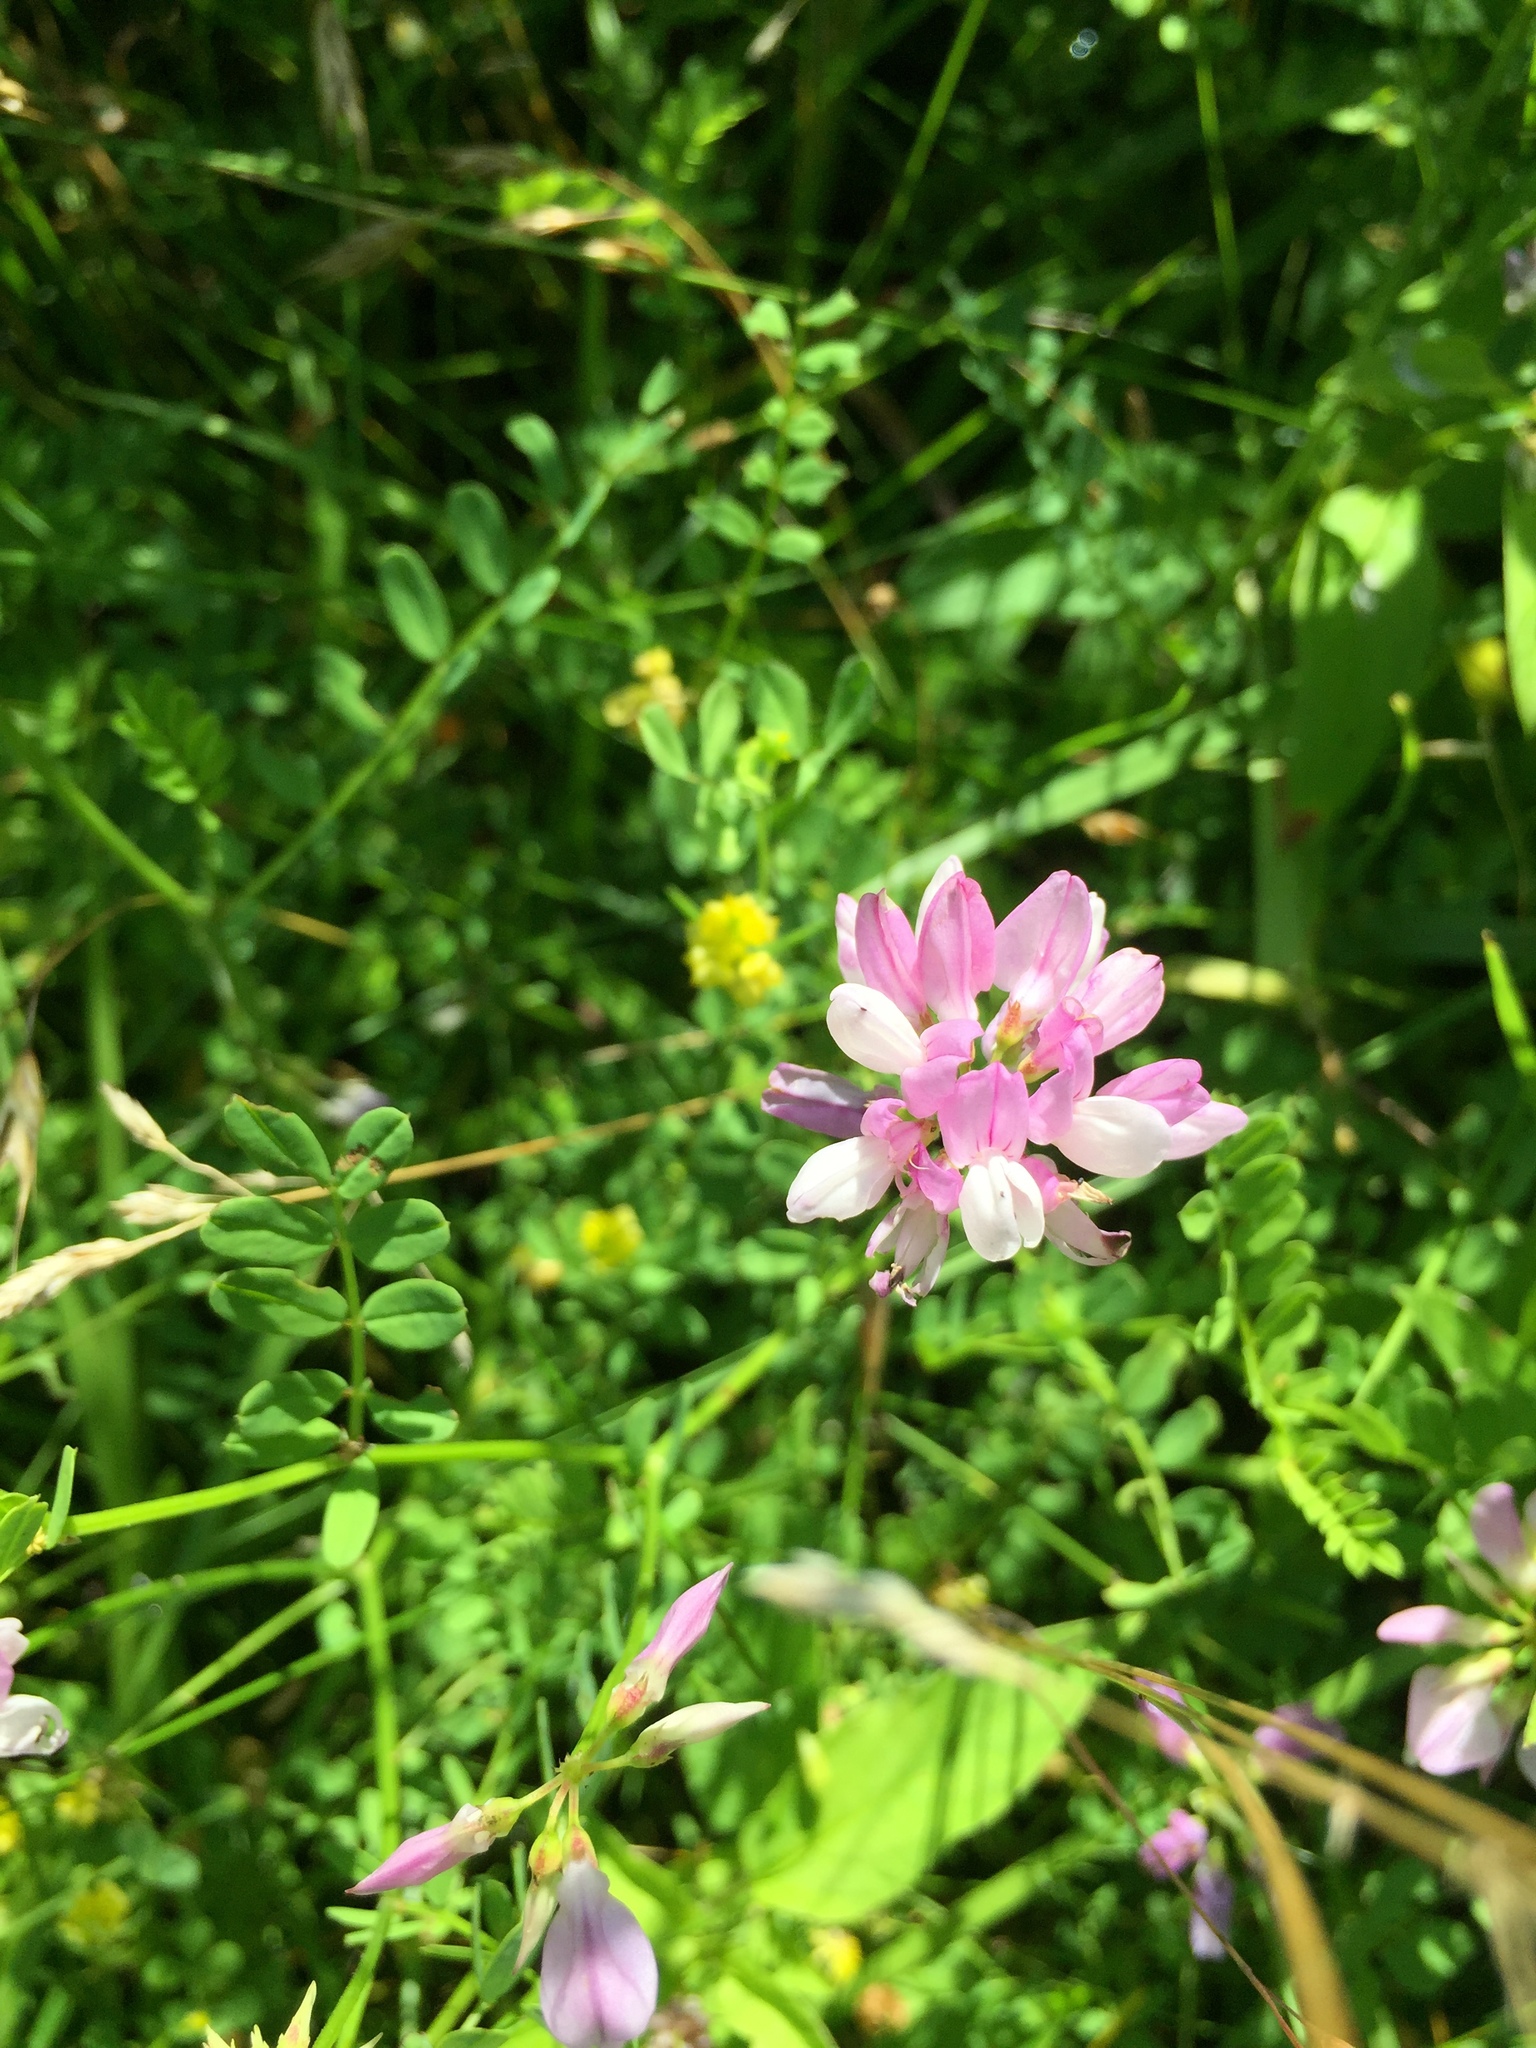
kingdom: Plantae
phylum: Tracheophyta
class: Magnoliopsida
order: Fabales
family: Fabaceae
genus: Coronilla
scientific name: Coronilla varia
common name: Crownvetch
